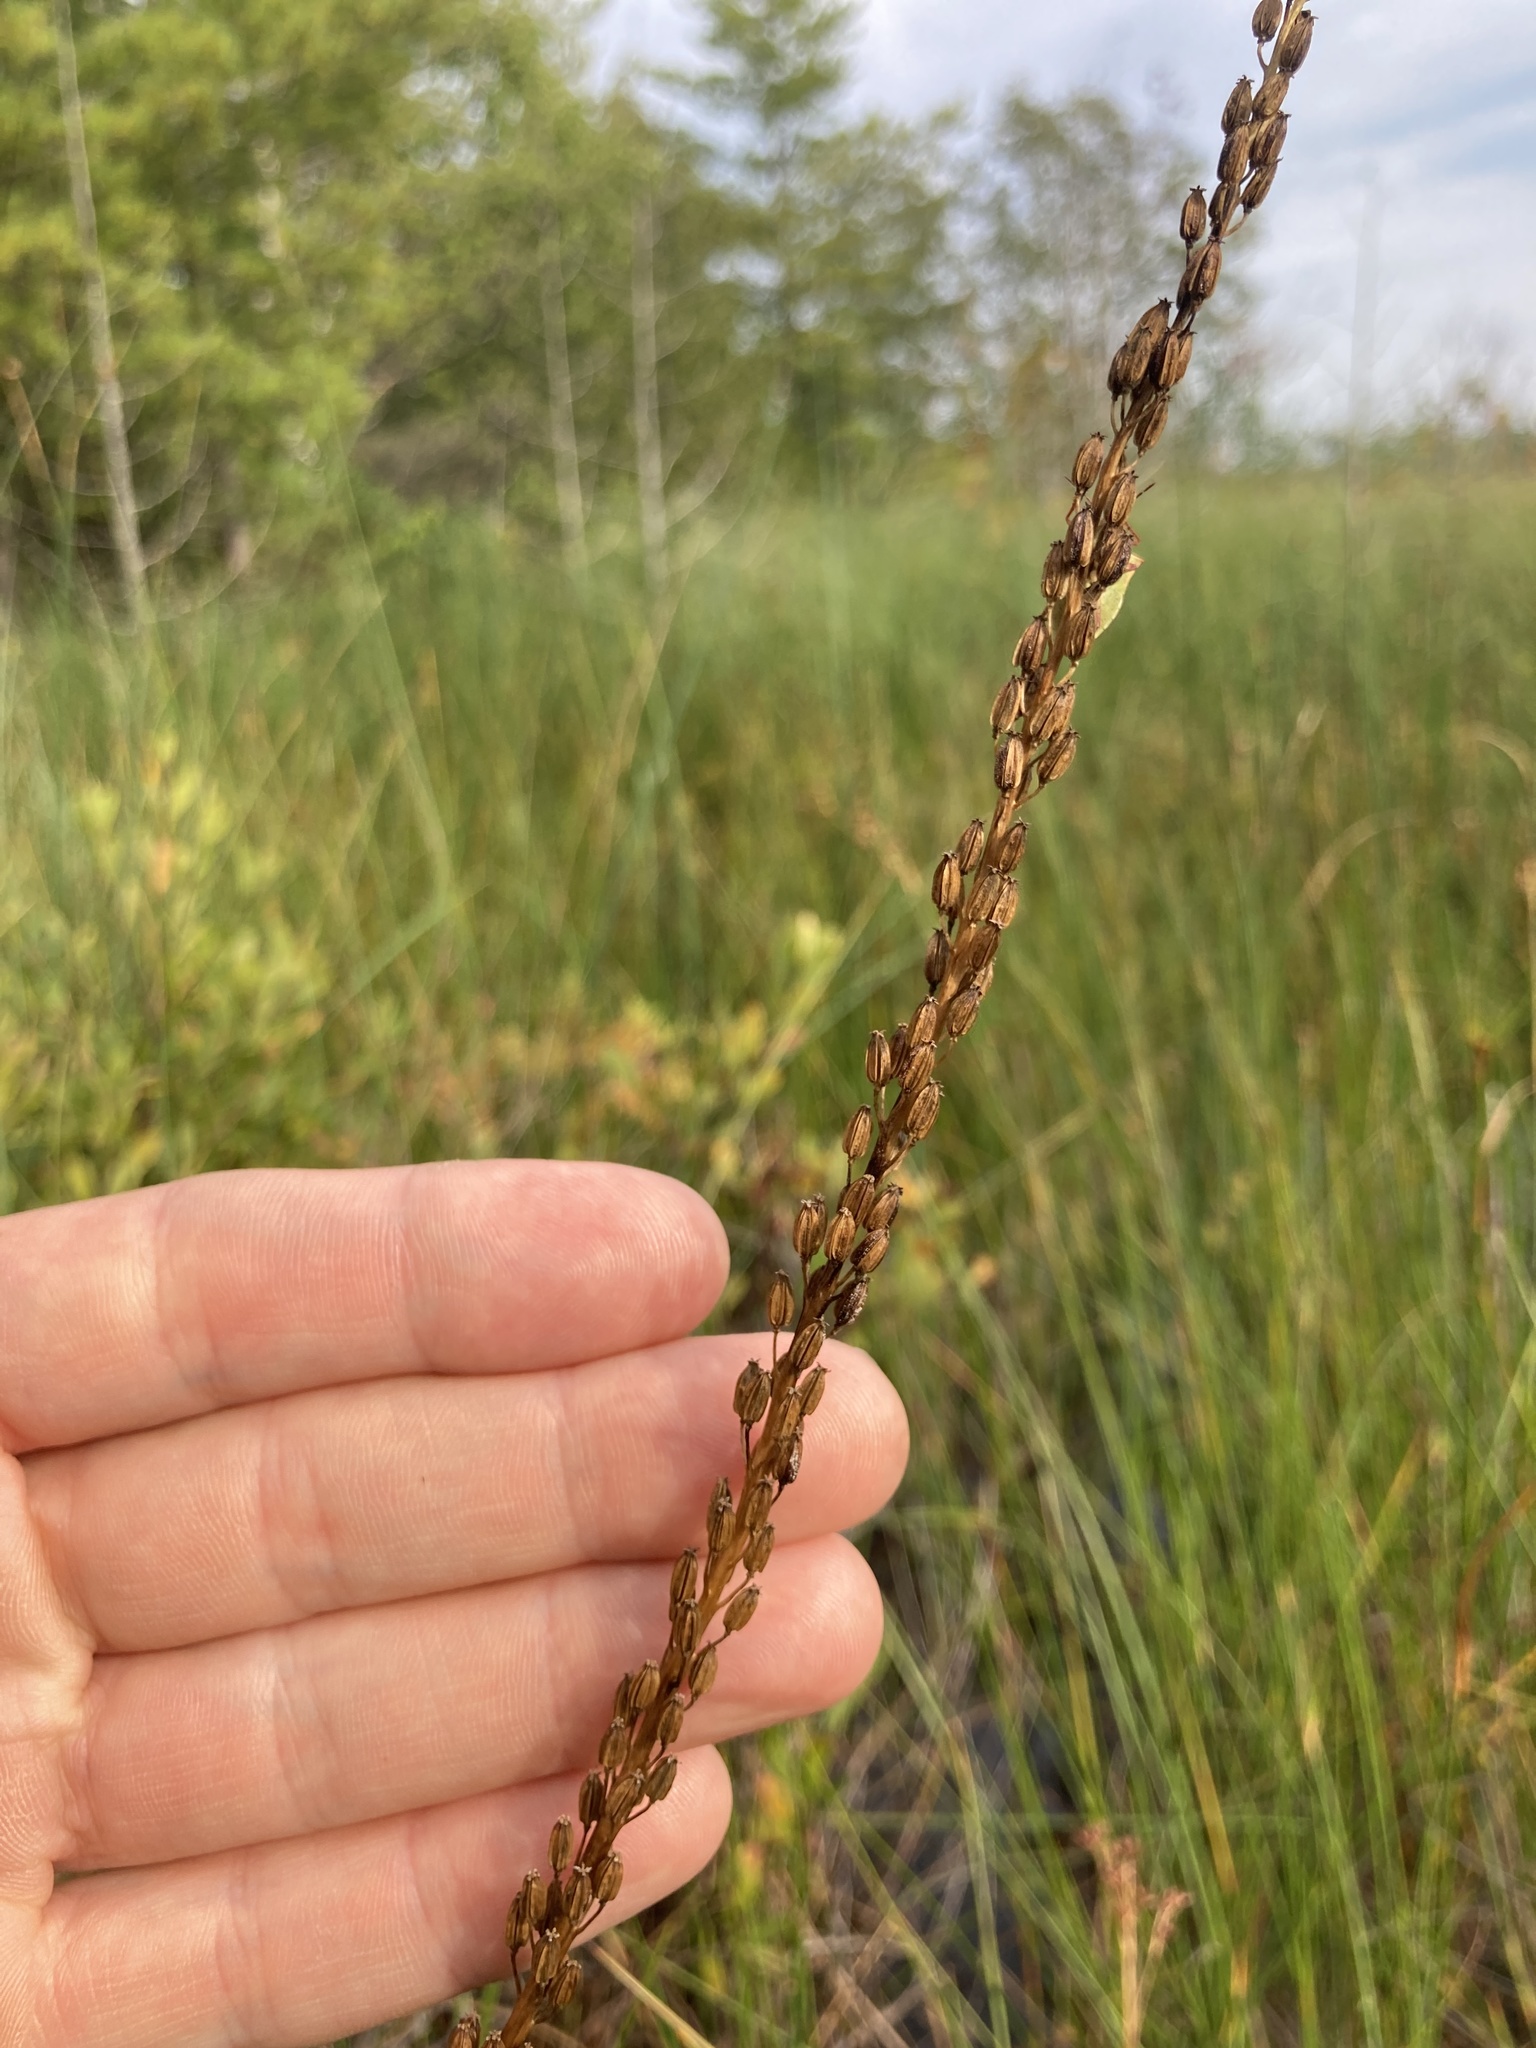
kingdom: Plantae
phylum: Tracheophyta
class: Liliopsida
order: Alismatales
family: Juncaginaceae
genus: Triglochin
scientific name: Triglochin maritima
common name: Sea arrowgrass
